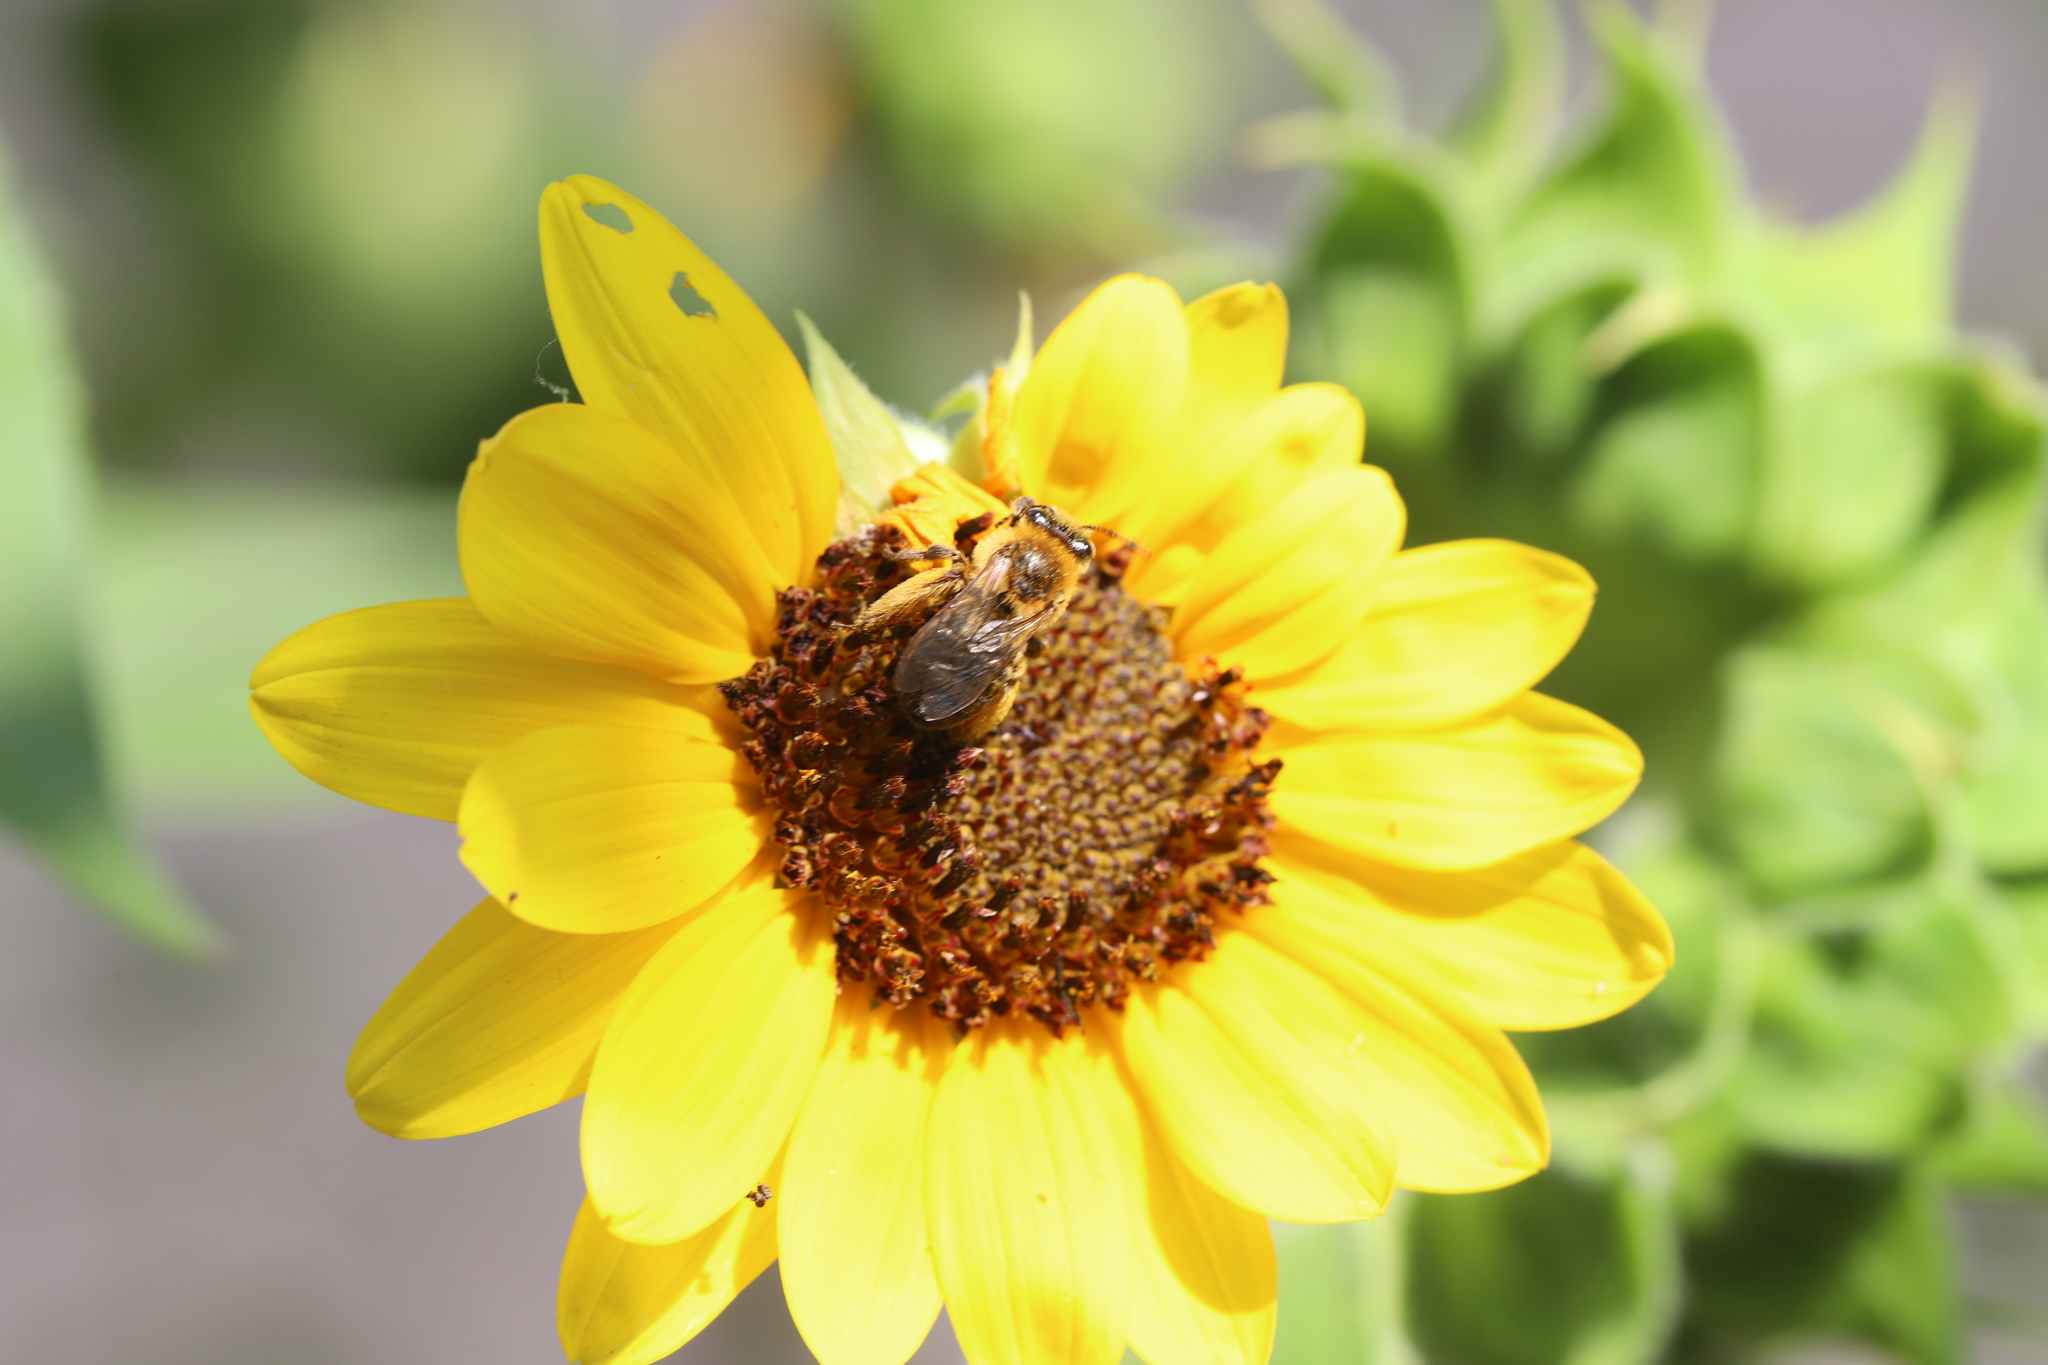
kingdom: Animalia
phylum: Arthropoda
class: Insecta
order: Hymenoptera
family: Apidae
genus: Melissodes
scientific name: Melissodes trinodis
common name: Dark-veined longhorn
